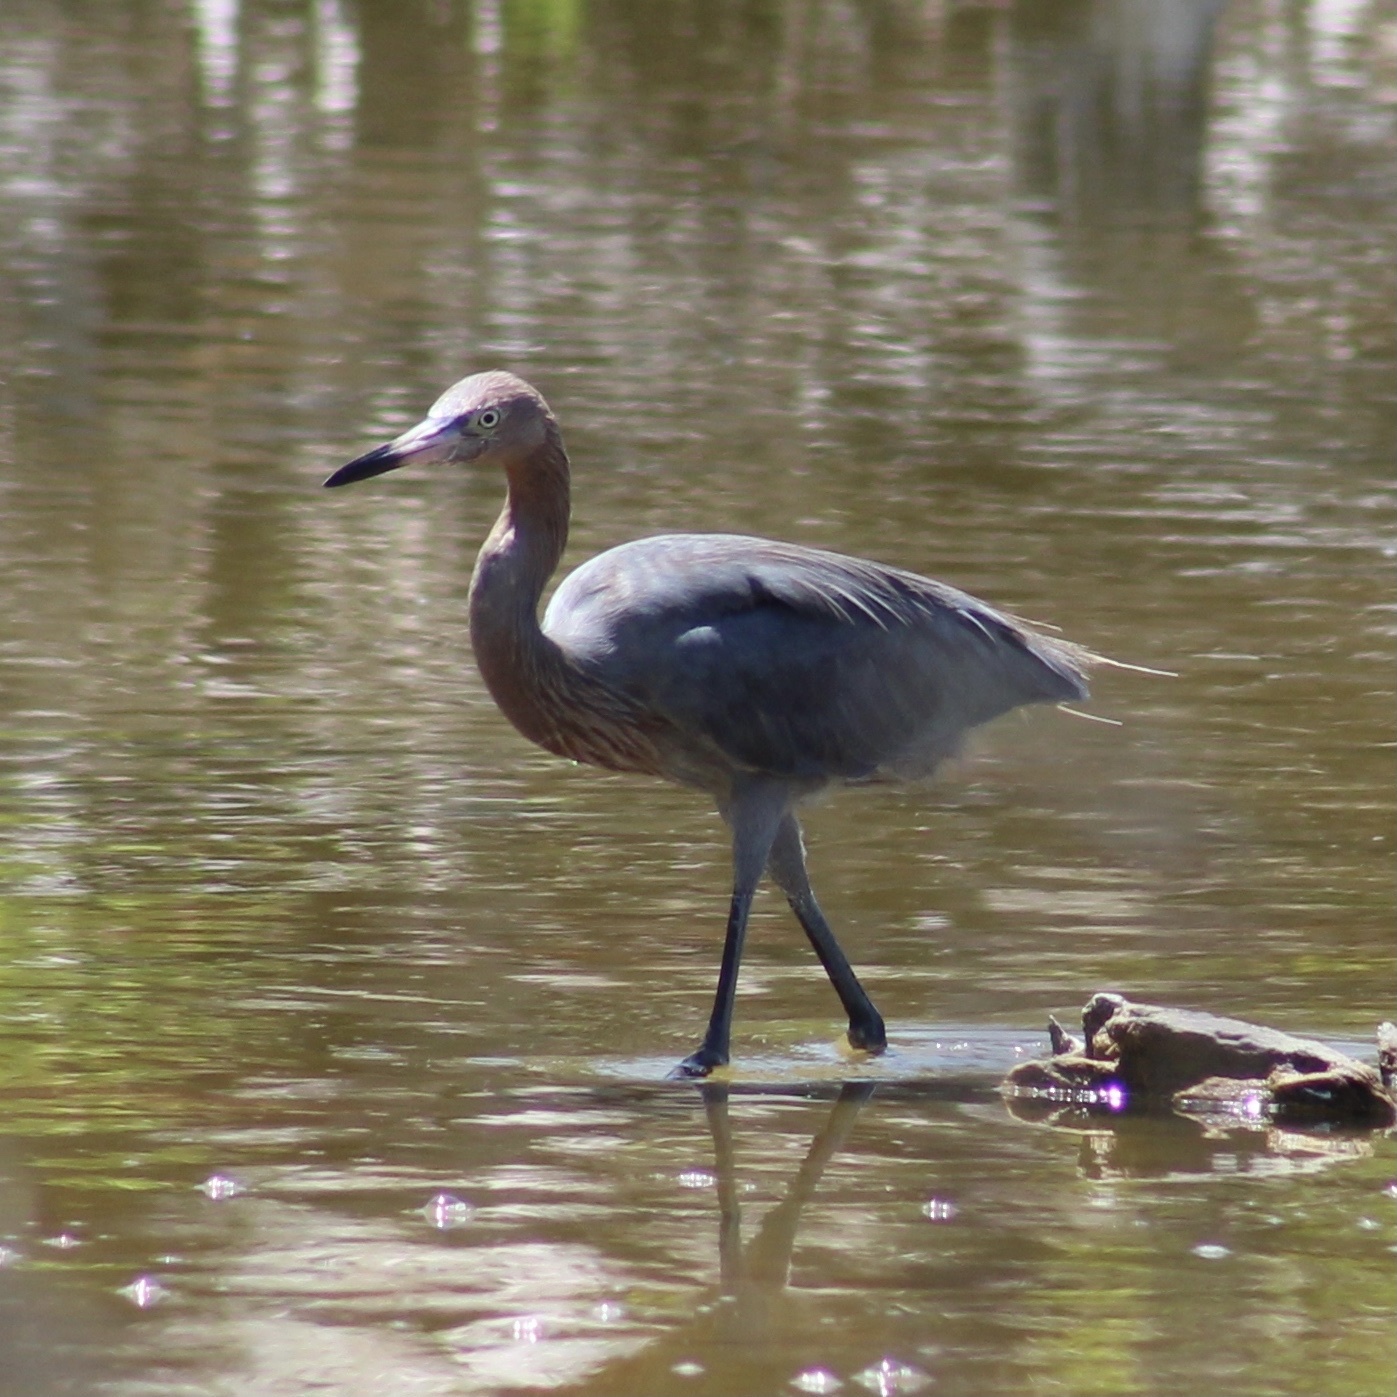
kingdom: Animalia
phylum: Chordata
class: Aves
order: Pelecaniformes
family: Ardeidae
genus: Egretta
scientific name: Egretta rufescens
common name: Reddish egret
